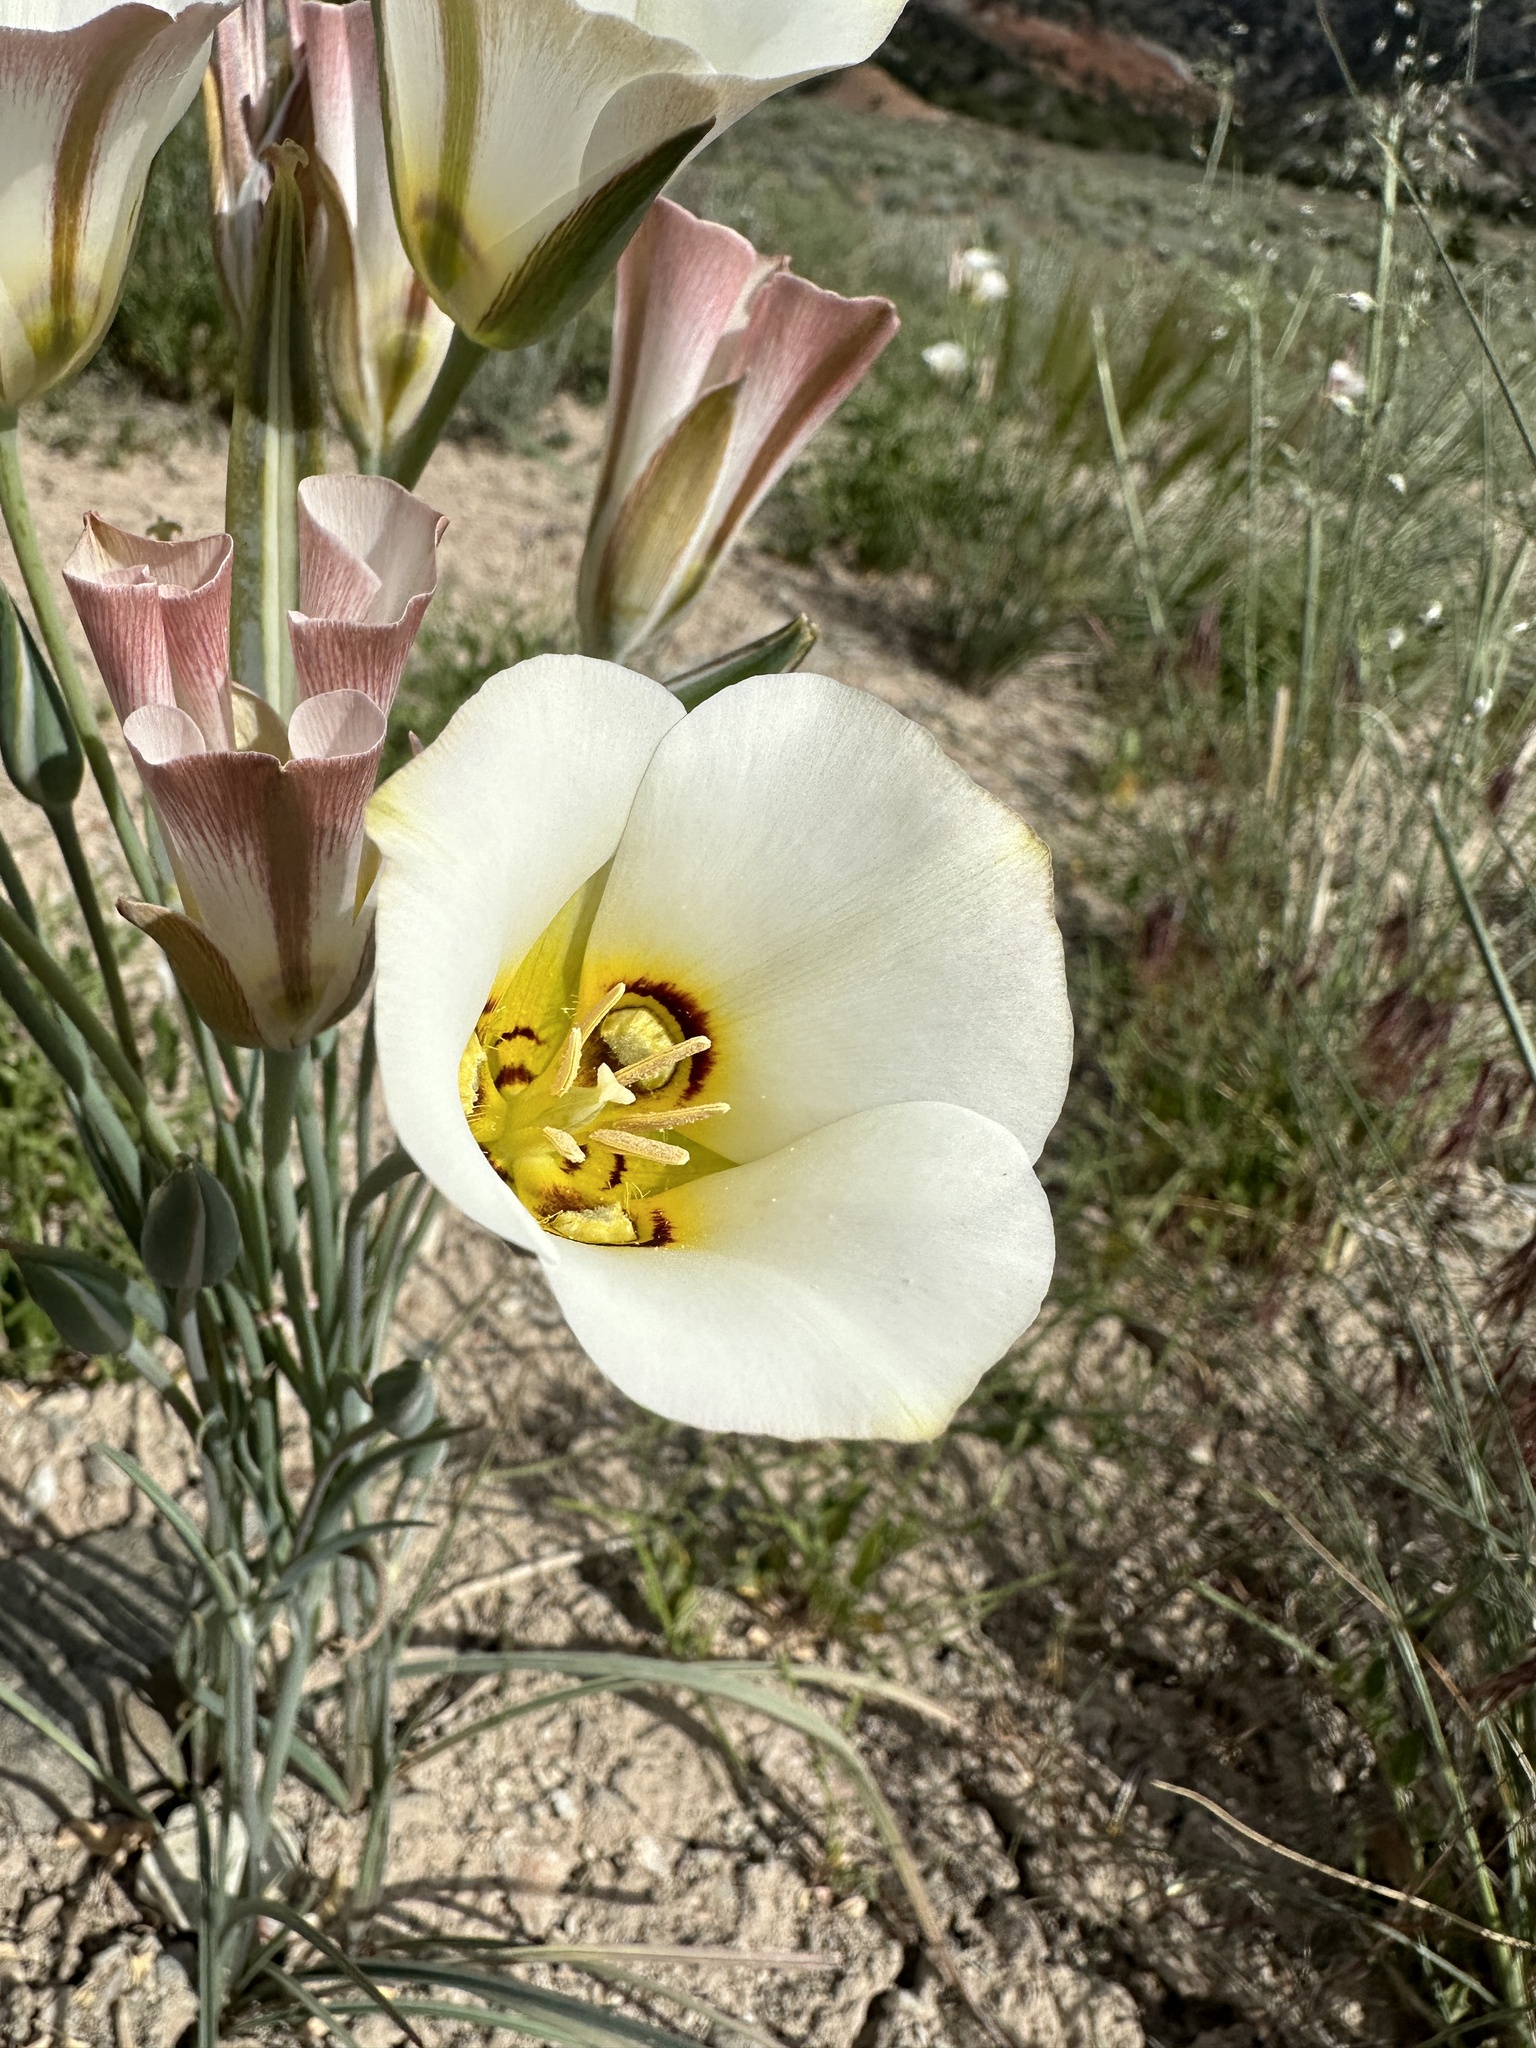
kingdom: Plantae
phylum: Tracheophyta
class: Liliopsida
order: Liliales
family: Liliaceae
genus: Calochortus
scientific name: Calochortus nuttallii
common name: Sego-lily
